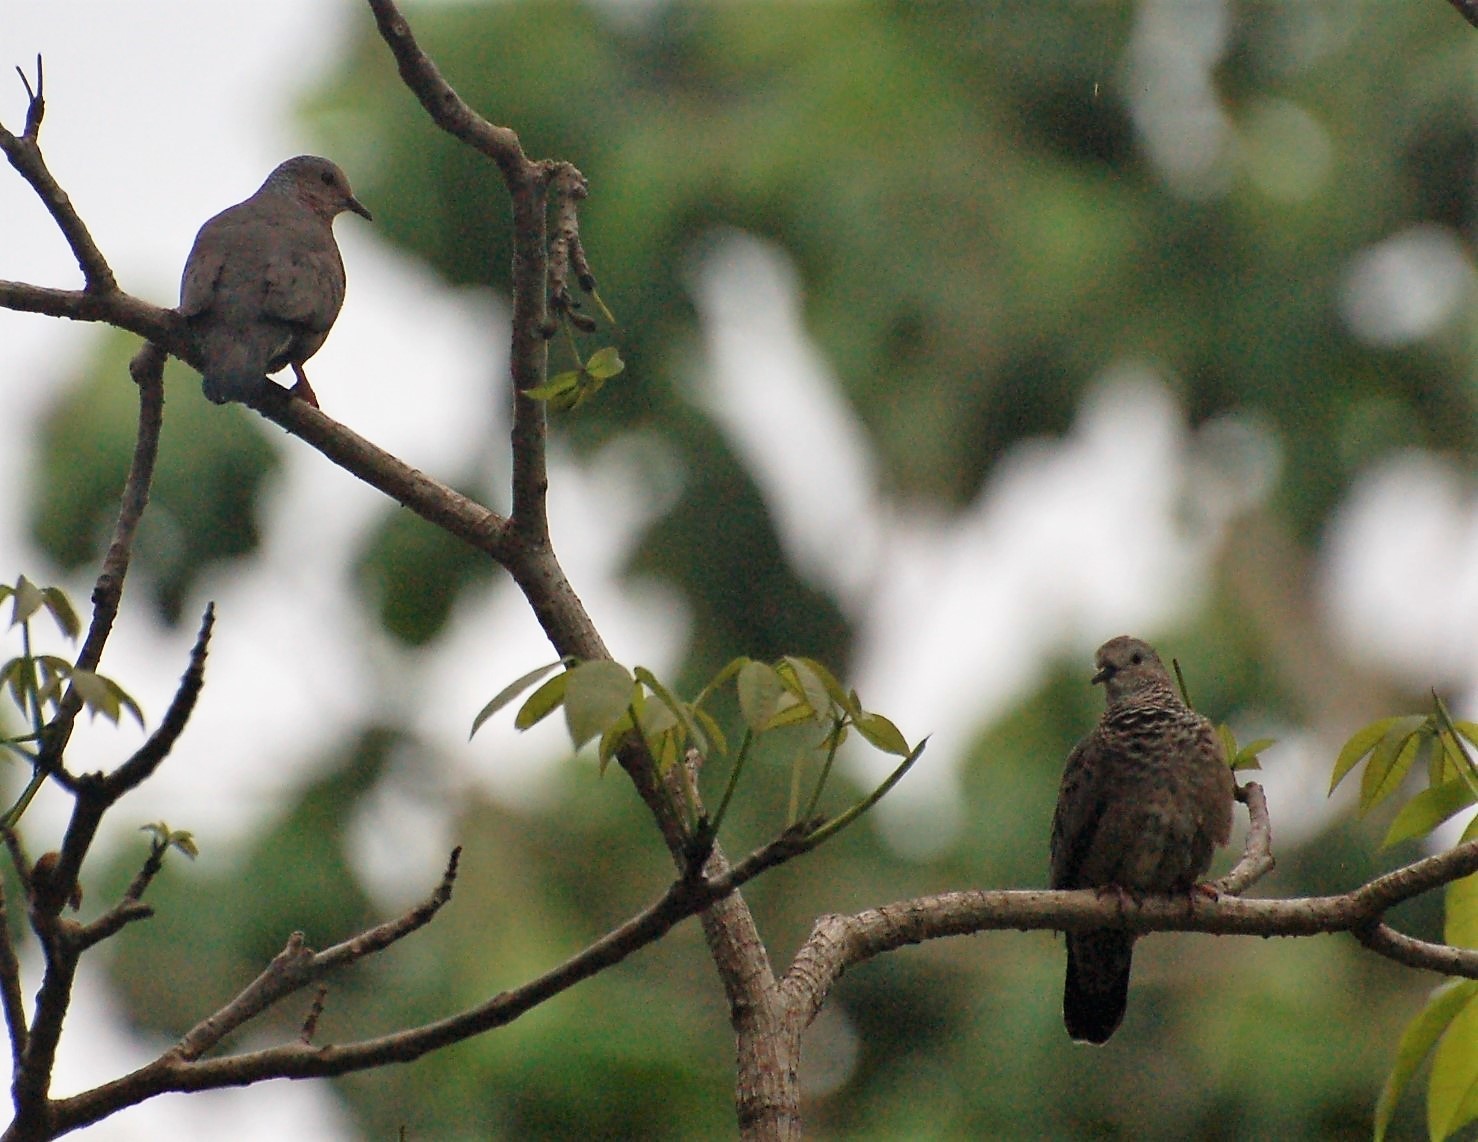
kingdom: Animalia
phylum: Chordata
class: Aves
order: Columbiformes
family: Columbidae
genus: Columbina
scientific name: Columbina passerina
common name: Common ground-dove
